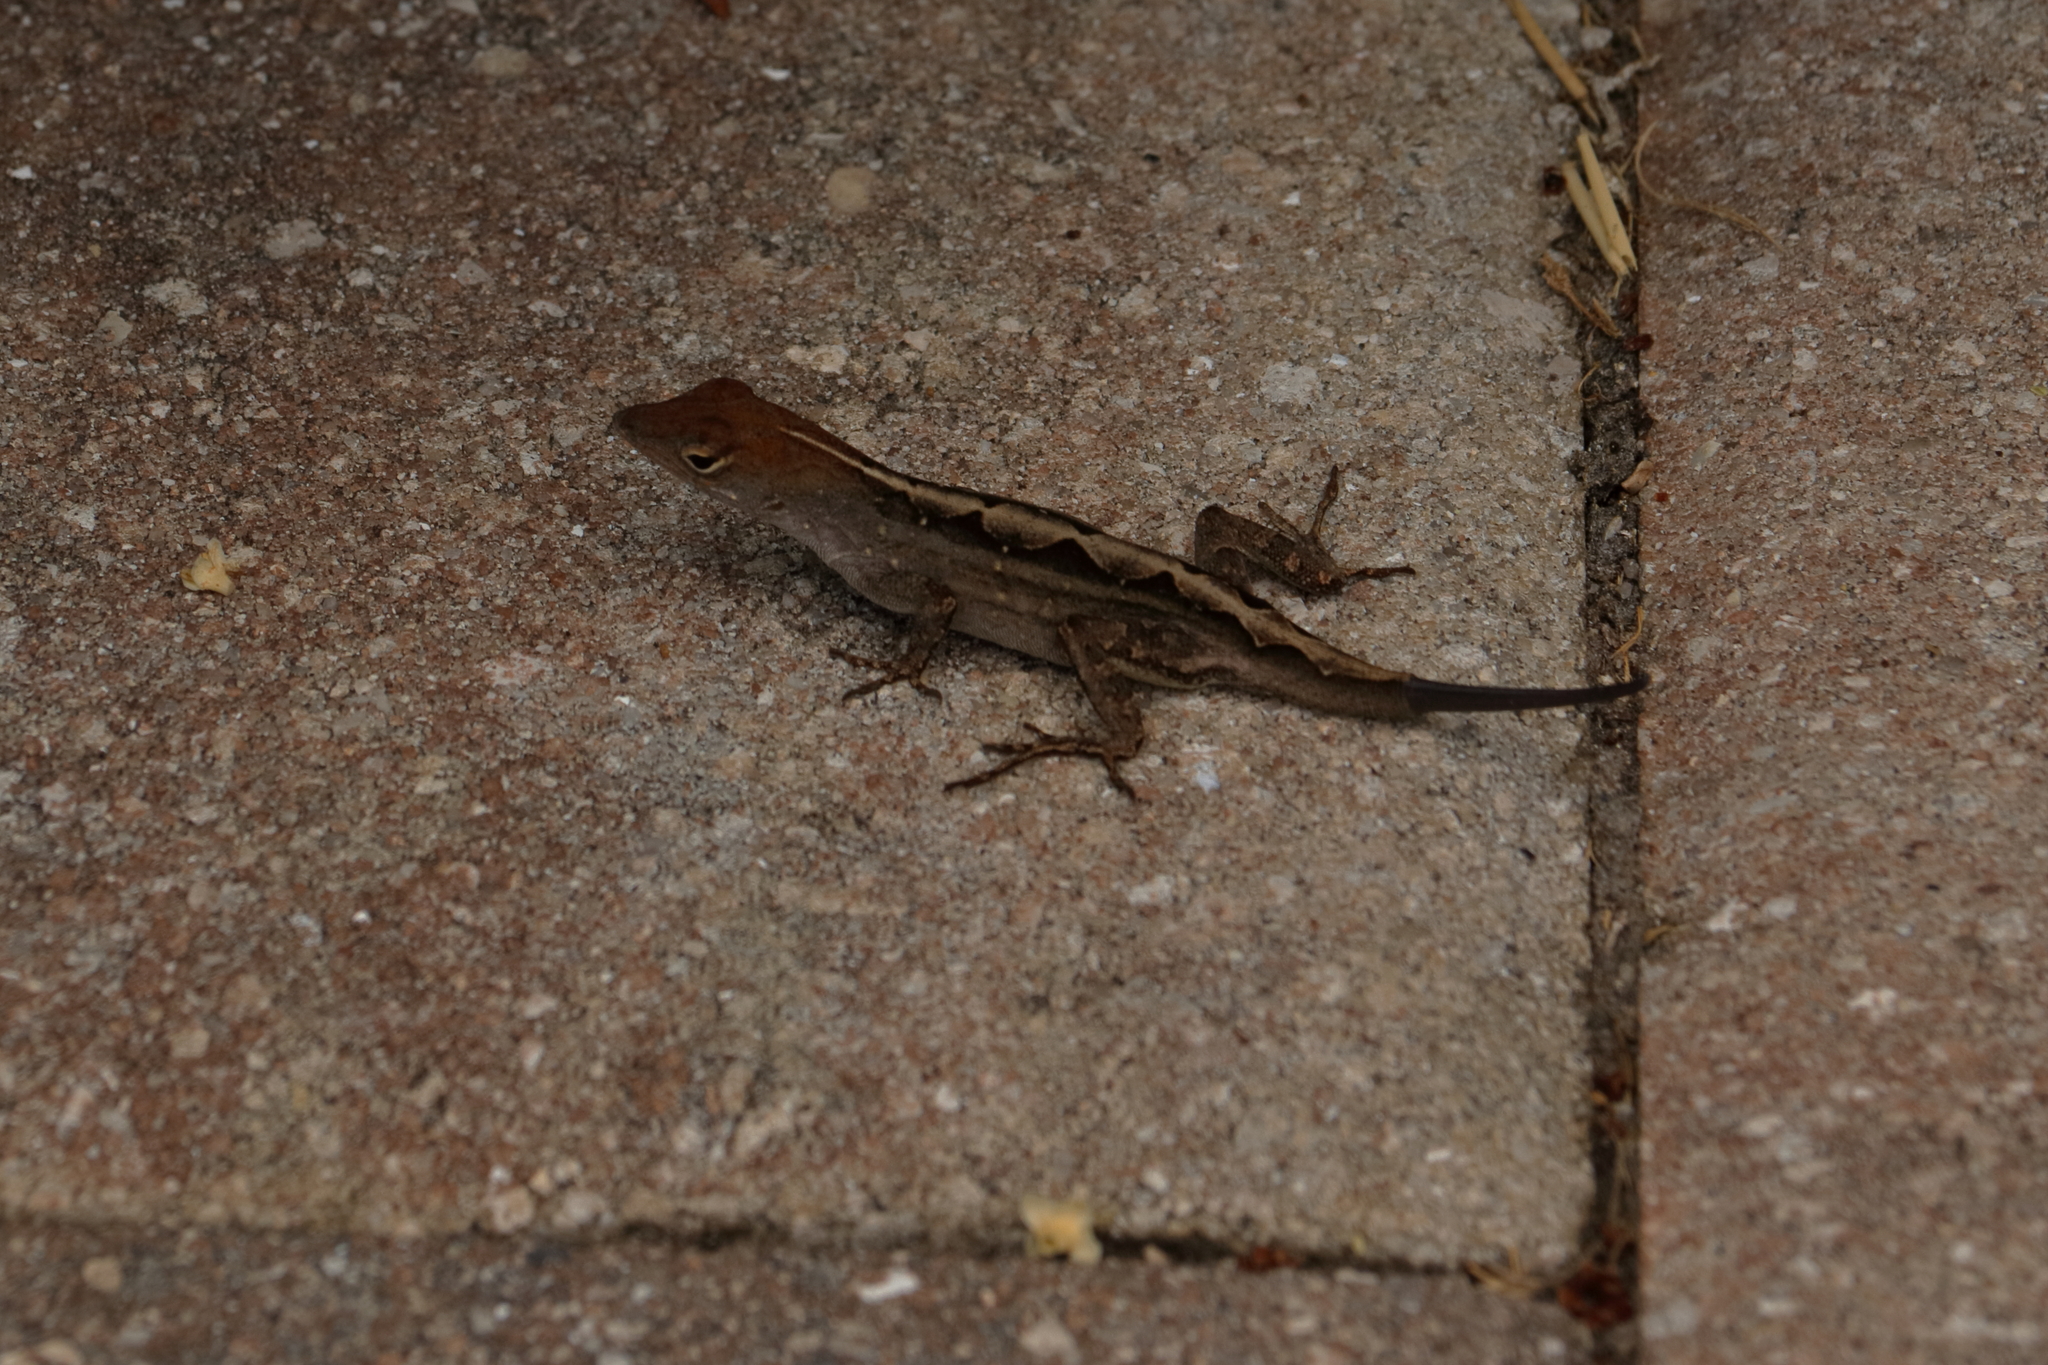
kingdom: Animalia
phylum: Chordata
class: Squamata
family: Dactyloidae
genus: Anolis
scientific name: Anolis sagrei
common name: Brown anole
